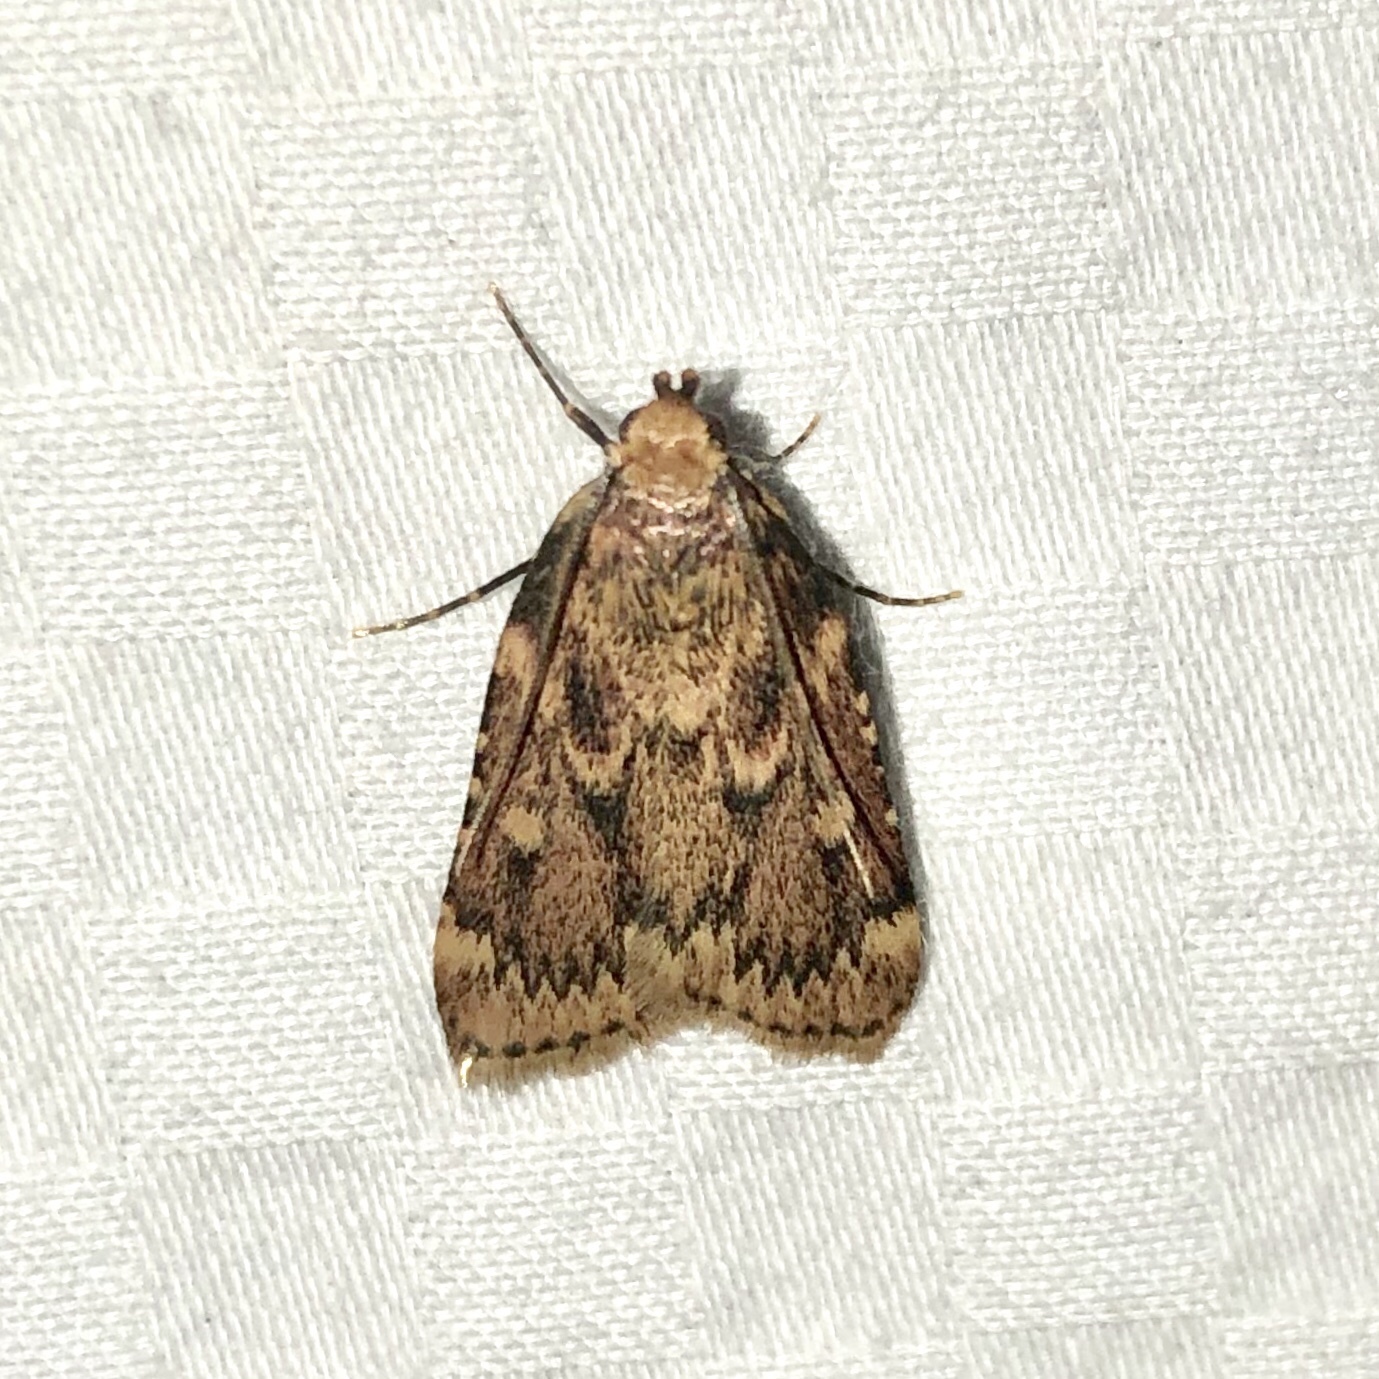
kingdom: Animalia
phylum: Arthropoda
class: Insecta
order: Lepidoptera
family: Pyralidae
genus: Aglossa
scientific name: Aglossa cuprina
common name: Grease moth
